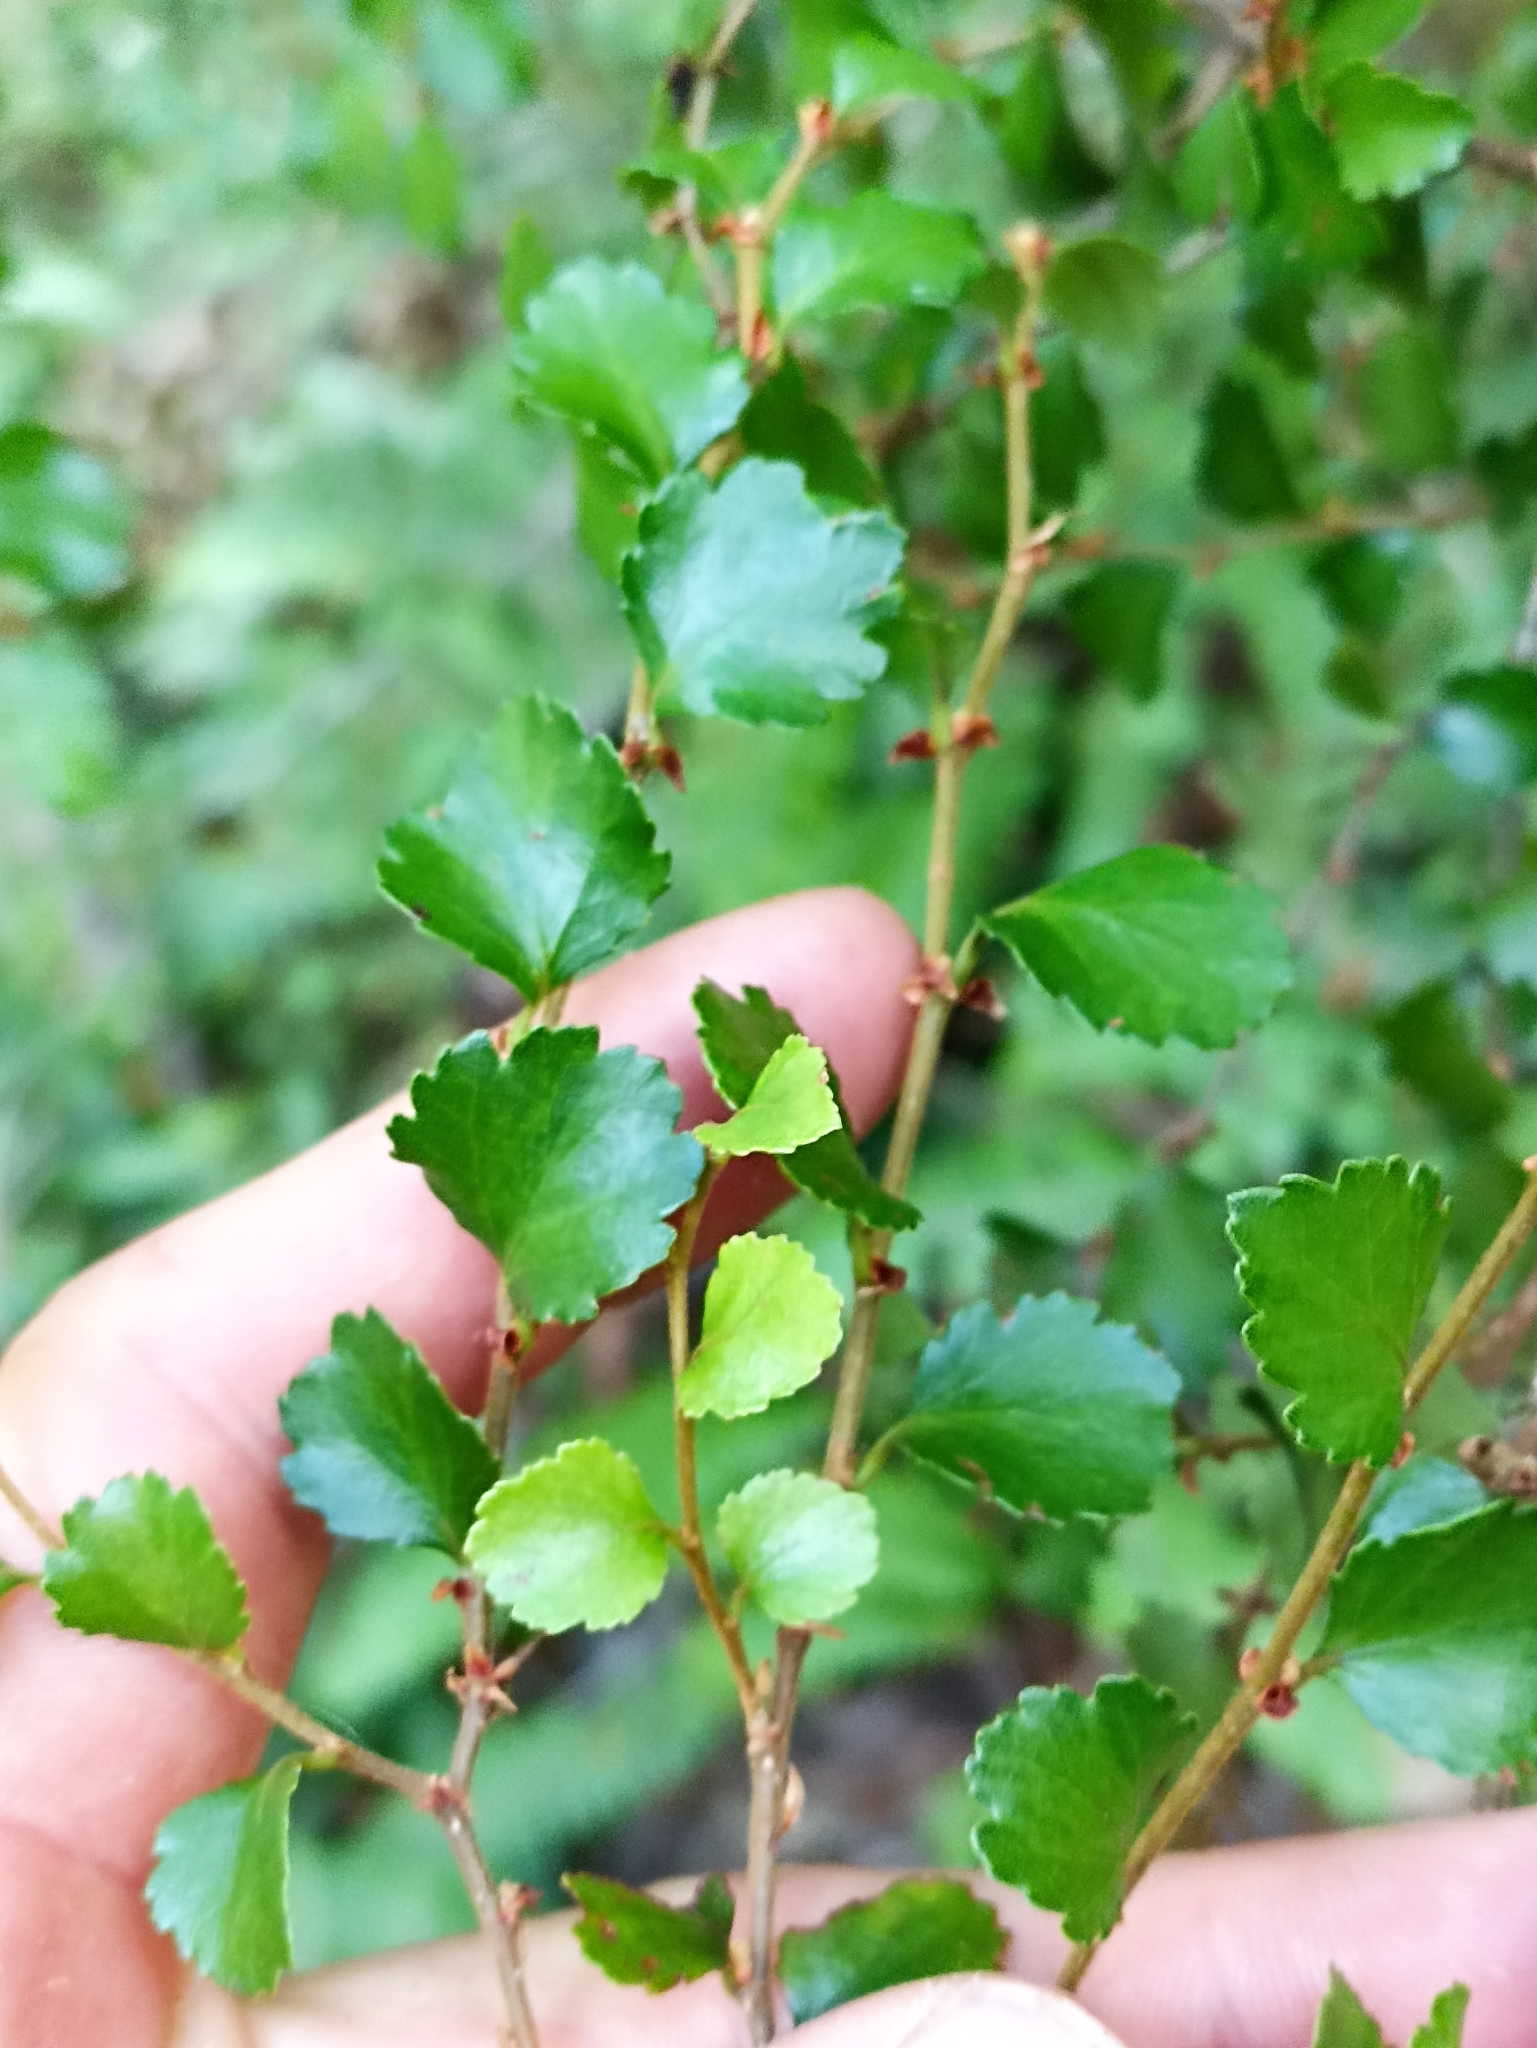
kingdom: Plantae
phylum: Tracheophyta
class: Magnoliopsida
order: Fagales
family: Nothofagaceae
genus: Nothofagus
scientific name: Nothofagus menziesii
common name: Silver beech
